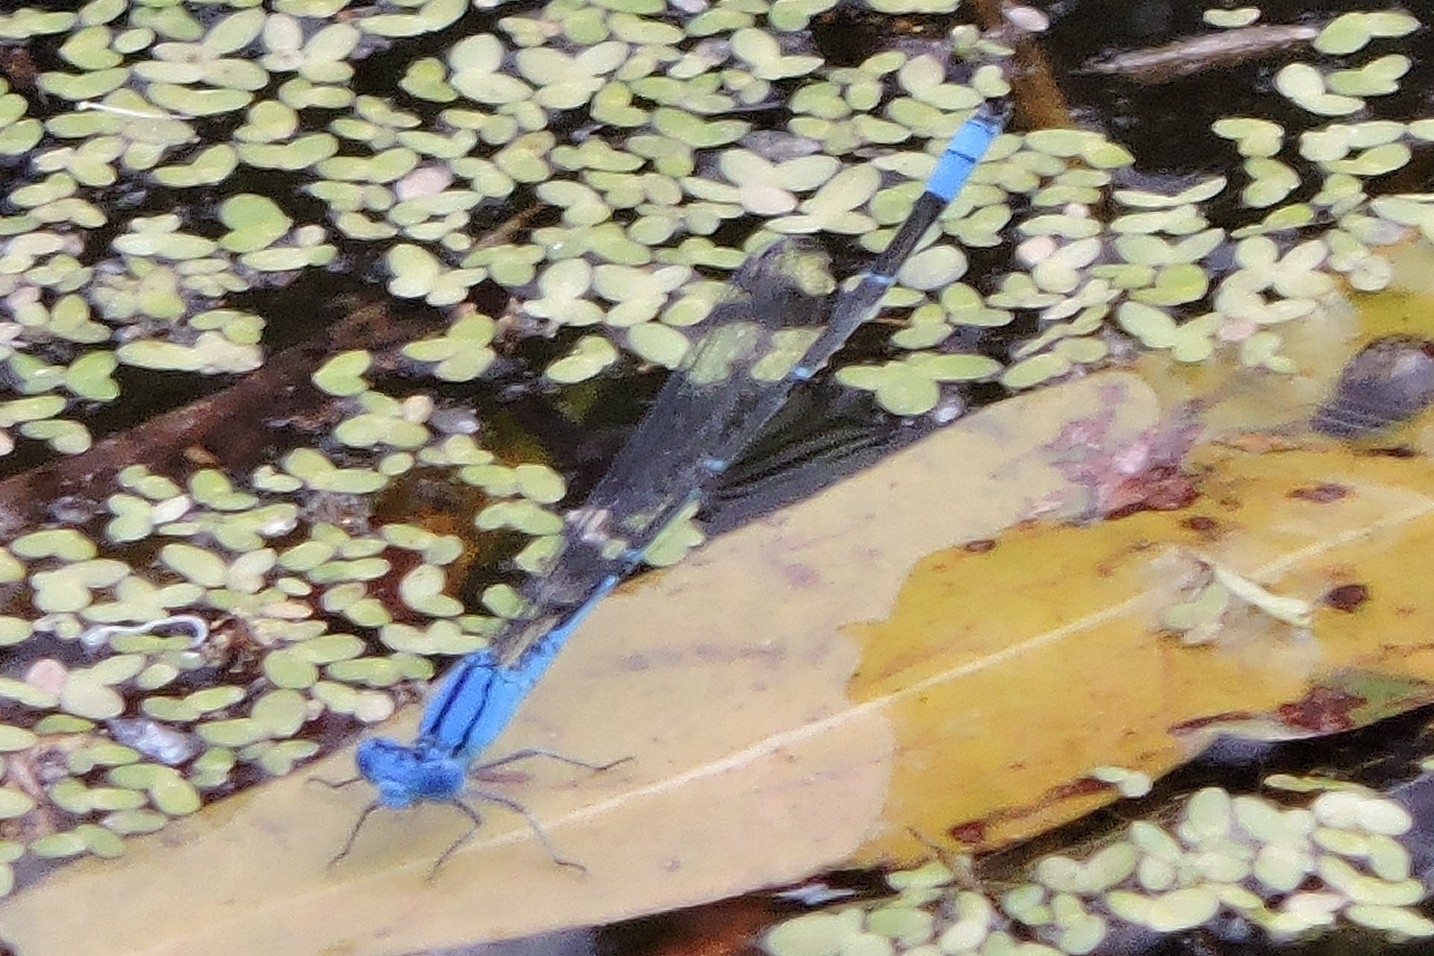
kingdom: Animalia
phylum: Arthropoda
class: Insecta
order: Odonata
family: Coenagrionidae
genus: Pseudagrion
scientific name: Pseudagrion cingillum
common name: Northern riverdamsel
